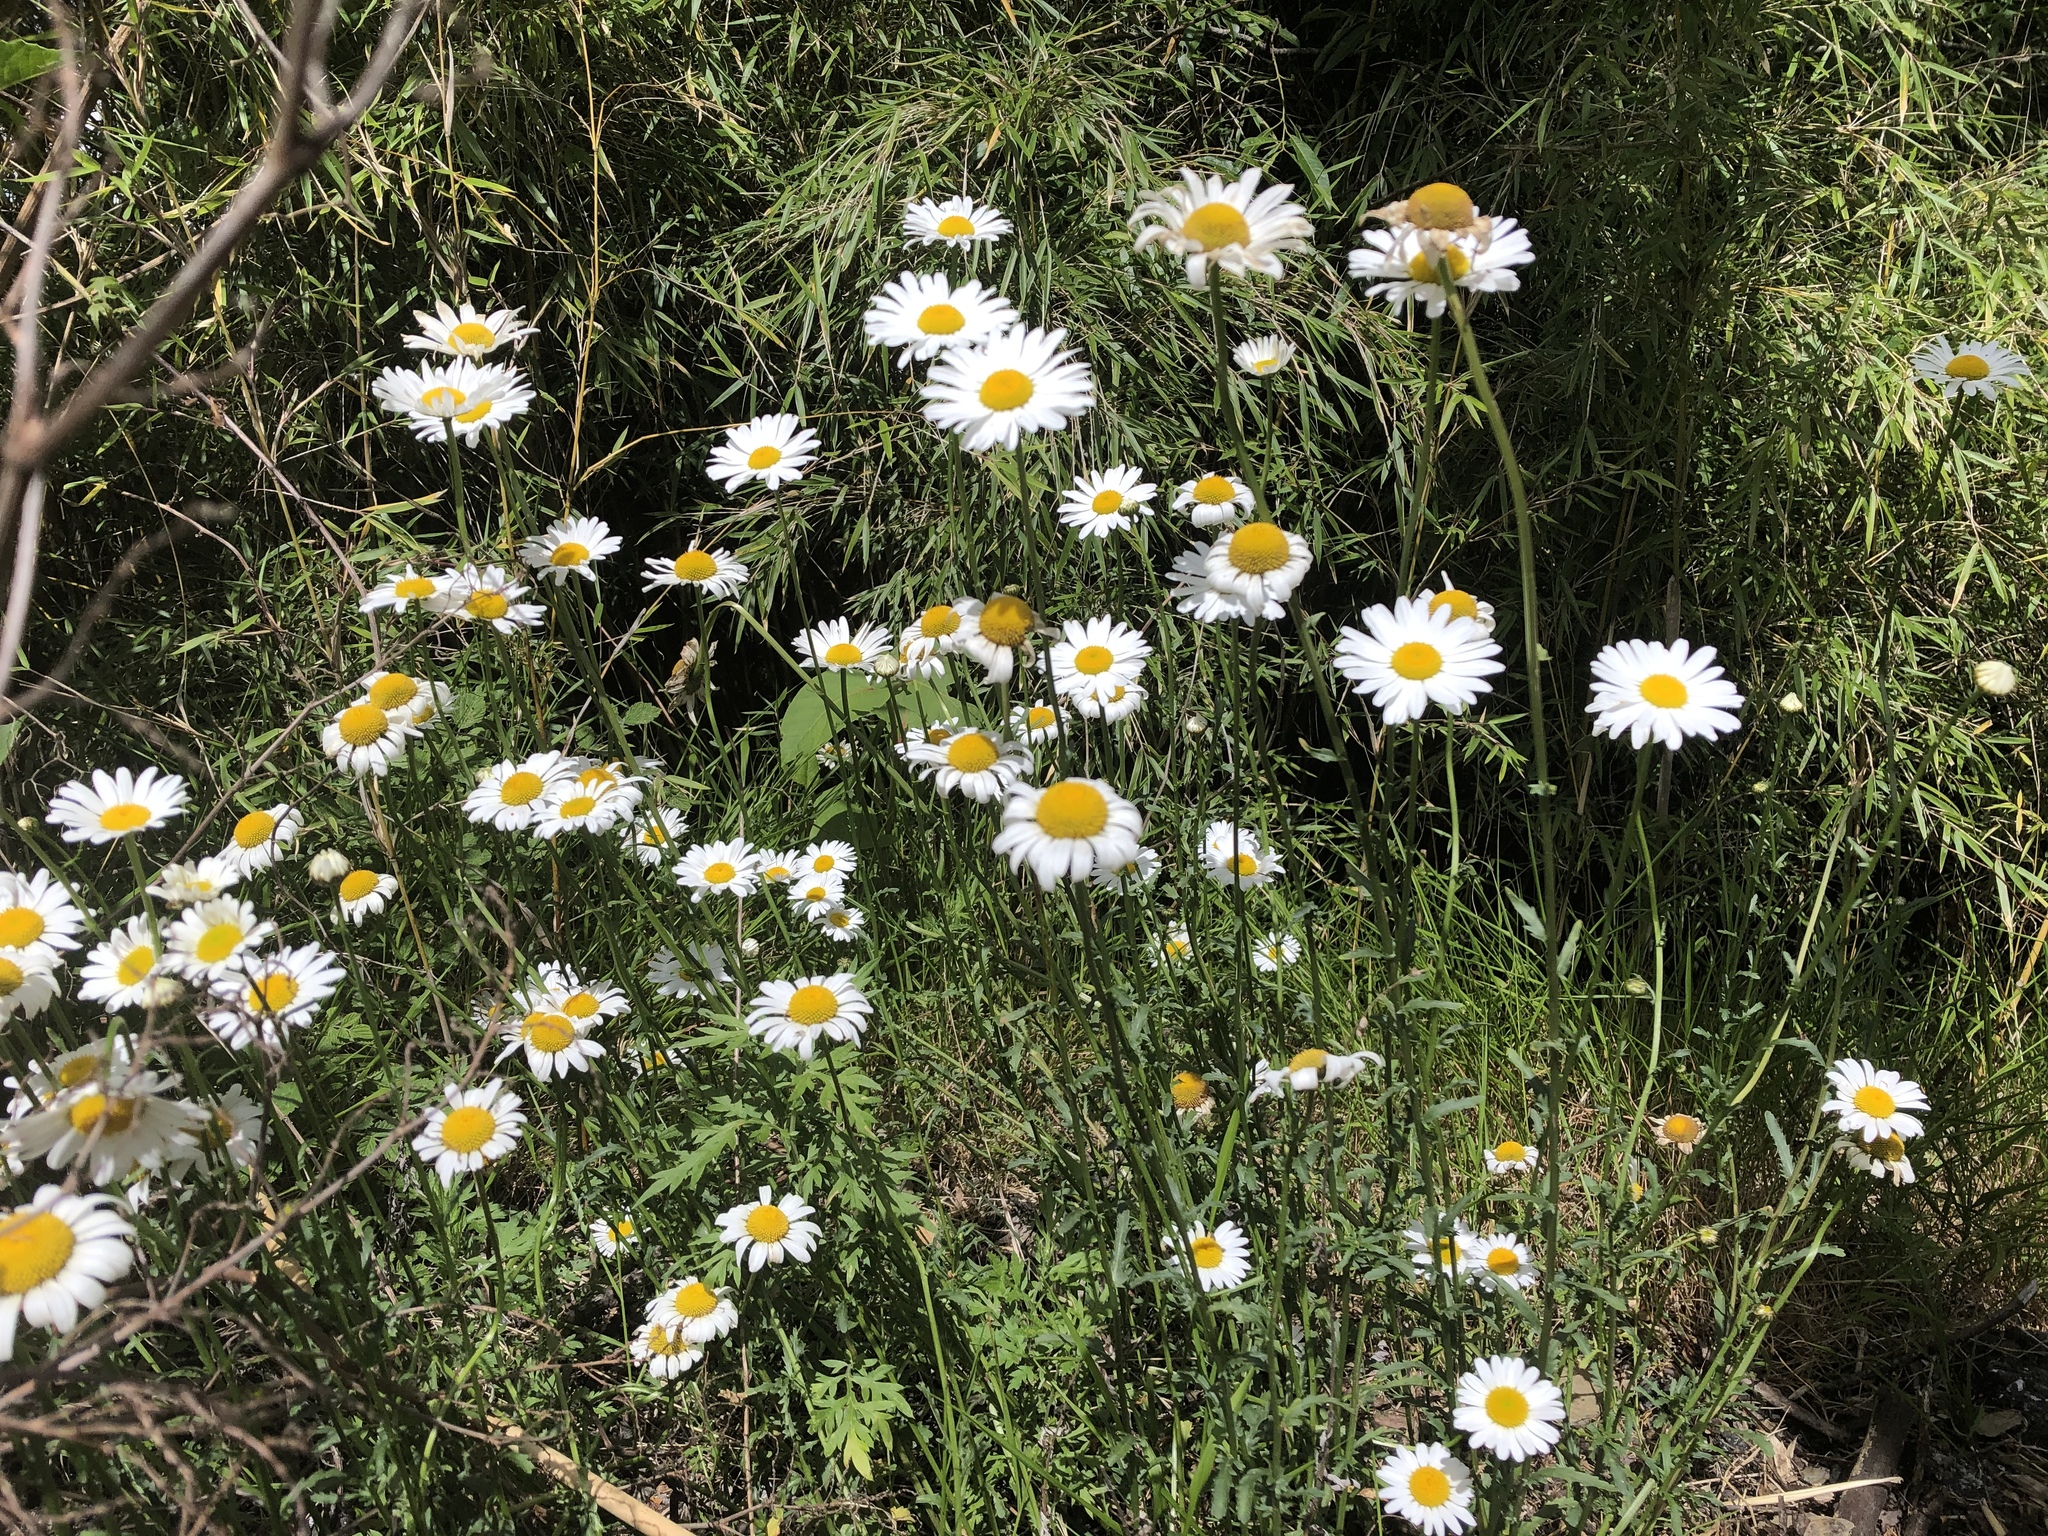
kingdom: Plantae
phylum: Tracheophyta
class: Magnoliopsida
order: Asterales
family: Asteraceae
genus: Leucanthemum
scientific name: Leucanthemum vulgare
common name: Oxeye daisy
